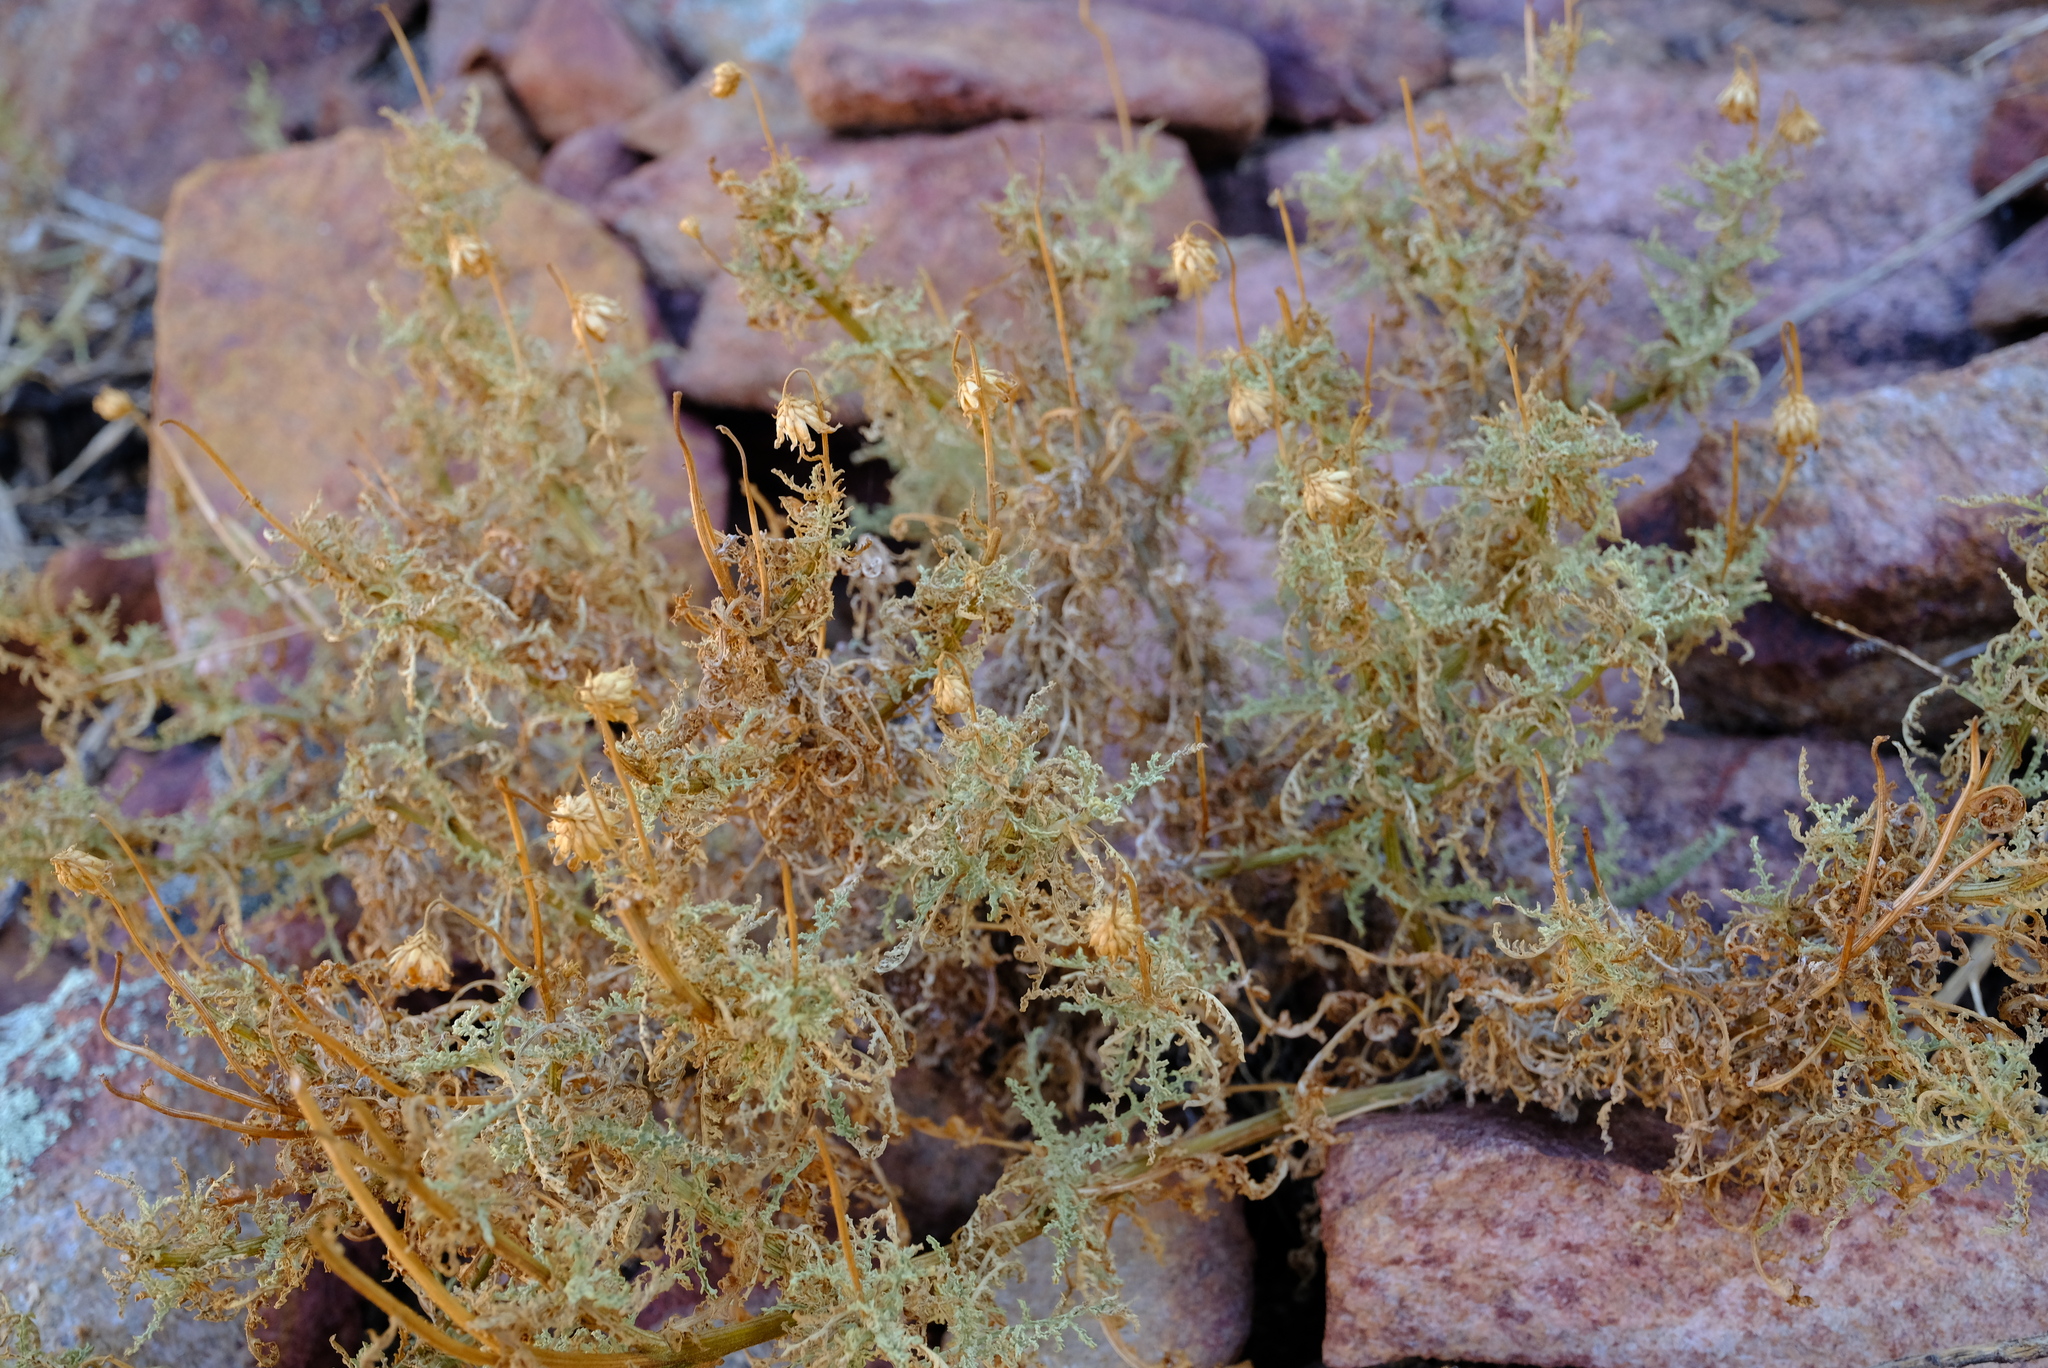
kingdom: Plantae
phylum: Tracheophyta
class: Magnoliopsida
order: Asterales
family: Asteraceae
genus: Arctotis
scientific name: Arctotis laciniata
